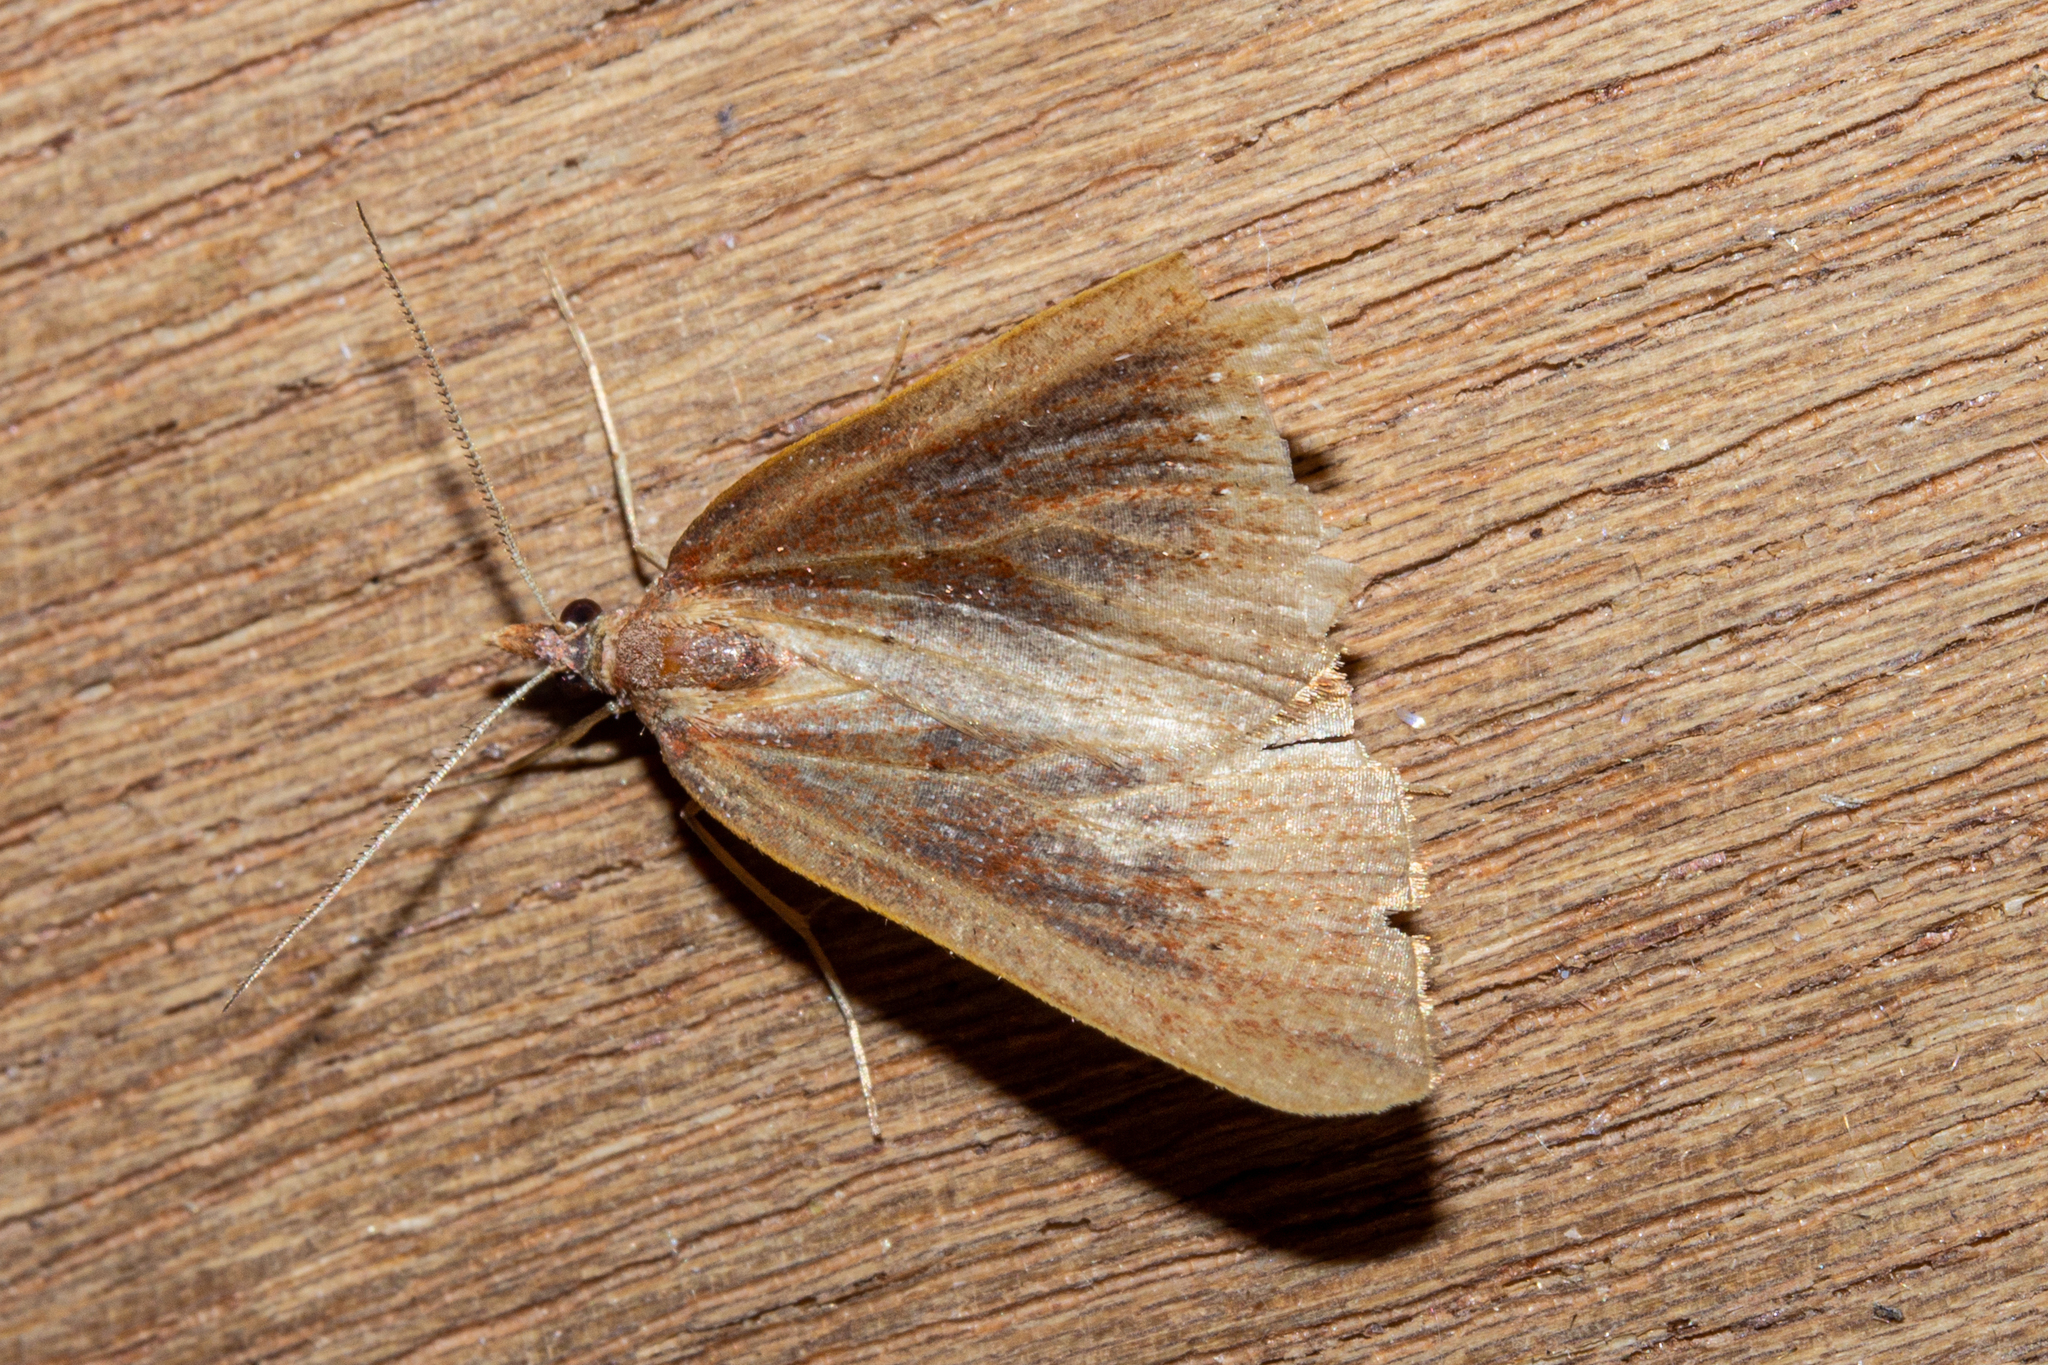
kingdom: Animalia
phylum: Arthropoda
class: Insecta
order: Lepidoptera
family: Geometridae
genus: Xanthorhoe
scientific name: Xanthorhoe occulta
